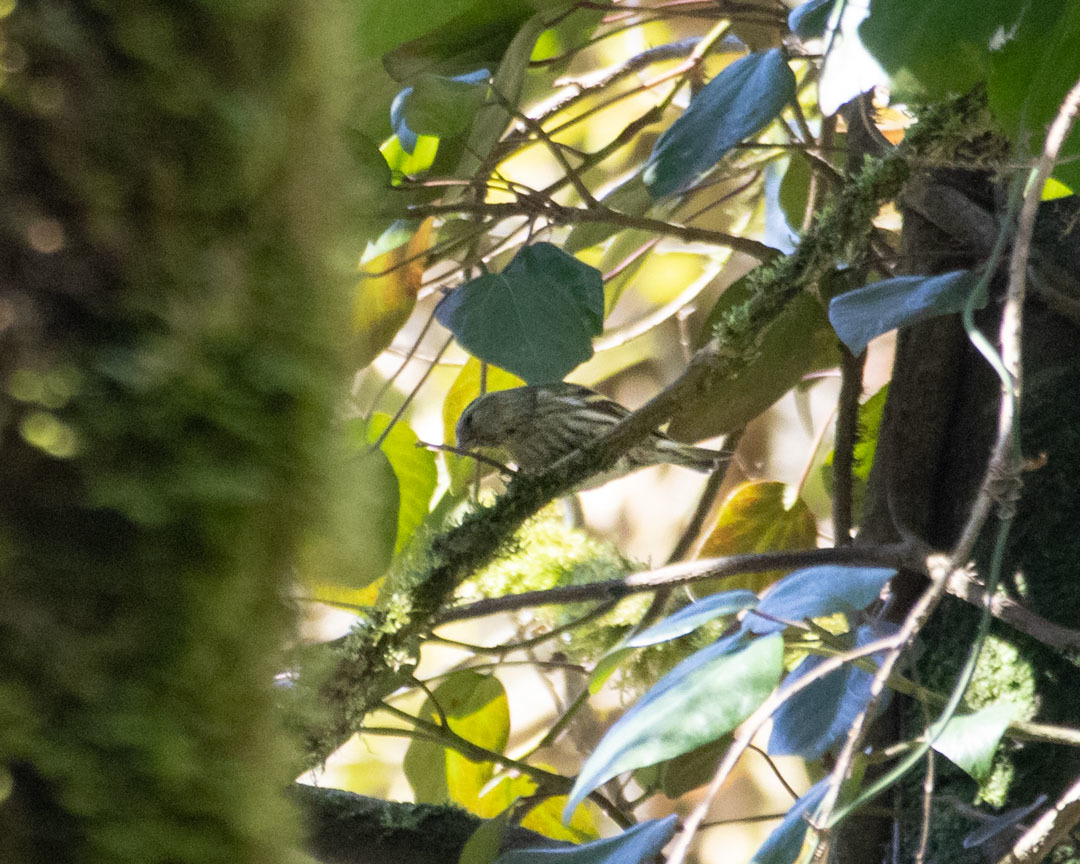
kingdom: Animalia
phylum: Chordata
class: Aves
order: Passeriformes
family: Fringillidae
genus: Spinus
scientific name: Spinus spinus
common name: Eurasian siskin
